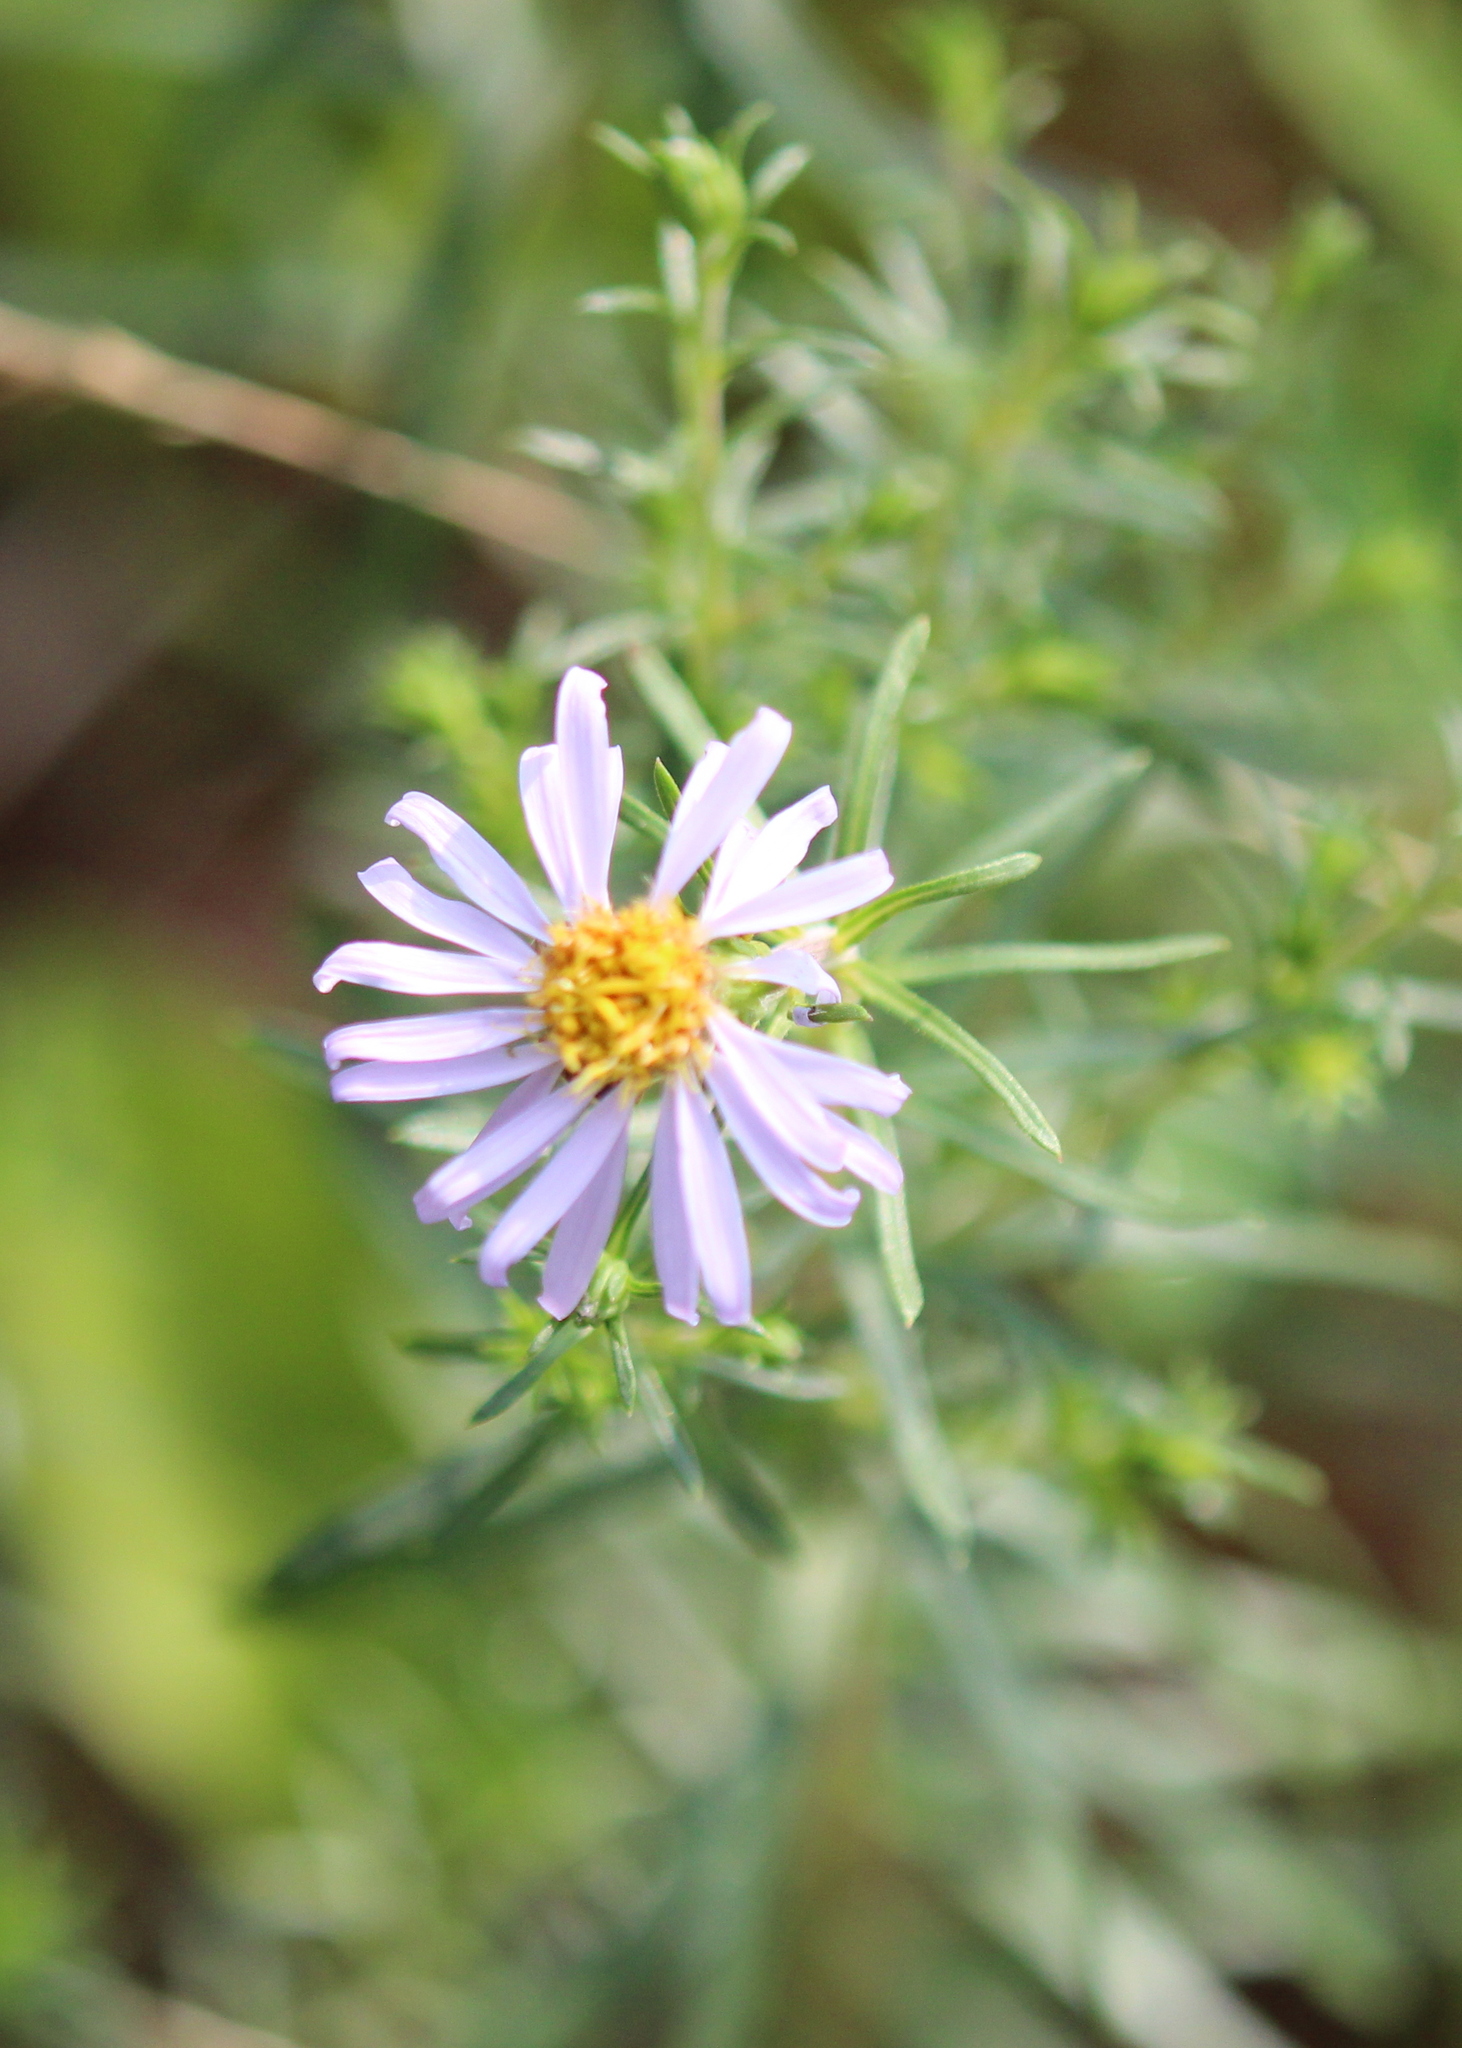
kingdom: Plantae
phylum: Tracheophyta
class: Magnoliopsida
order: Asterales
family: Asteraceae
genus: Ionactis
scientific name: Ionactis linariifolia
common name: Flax-leaf aster
